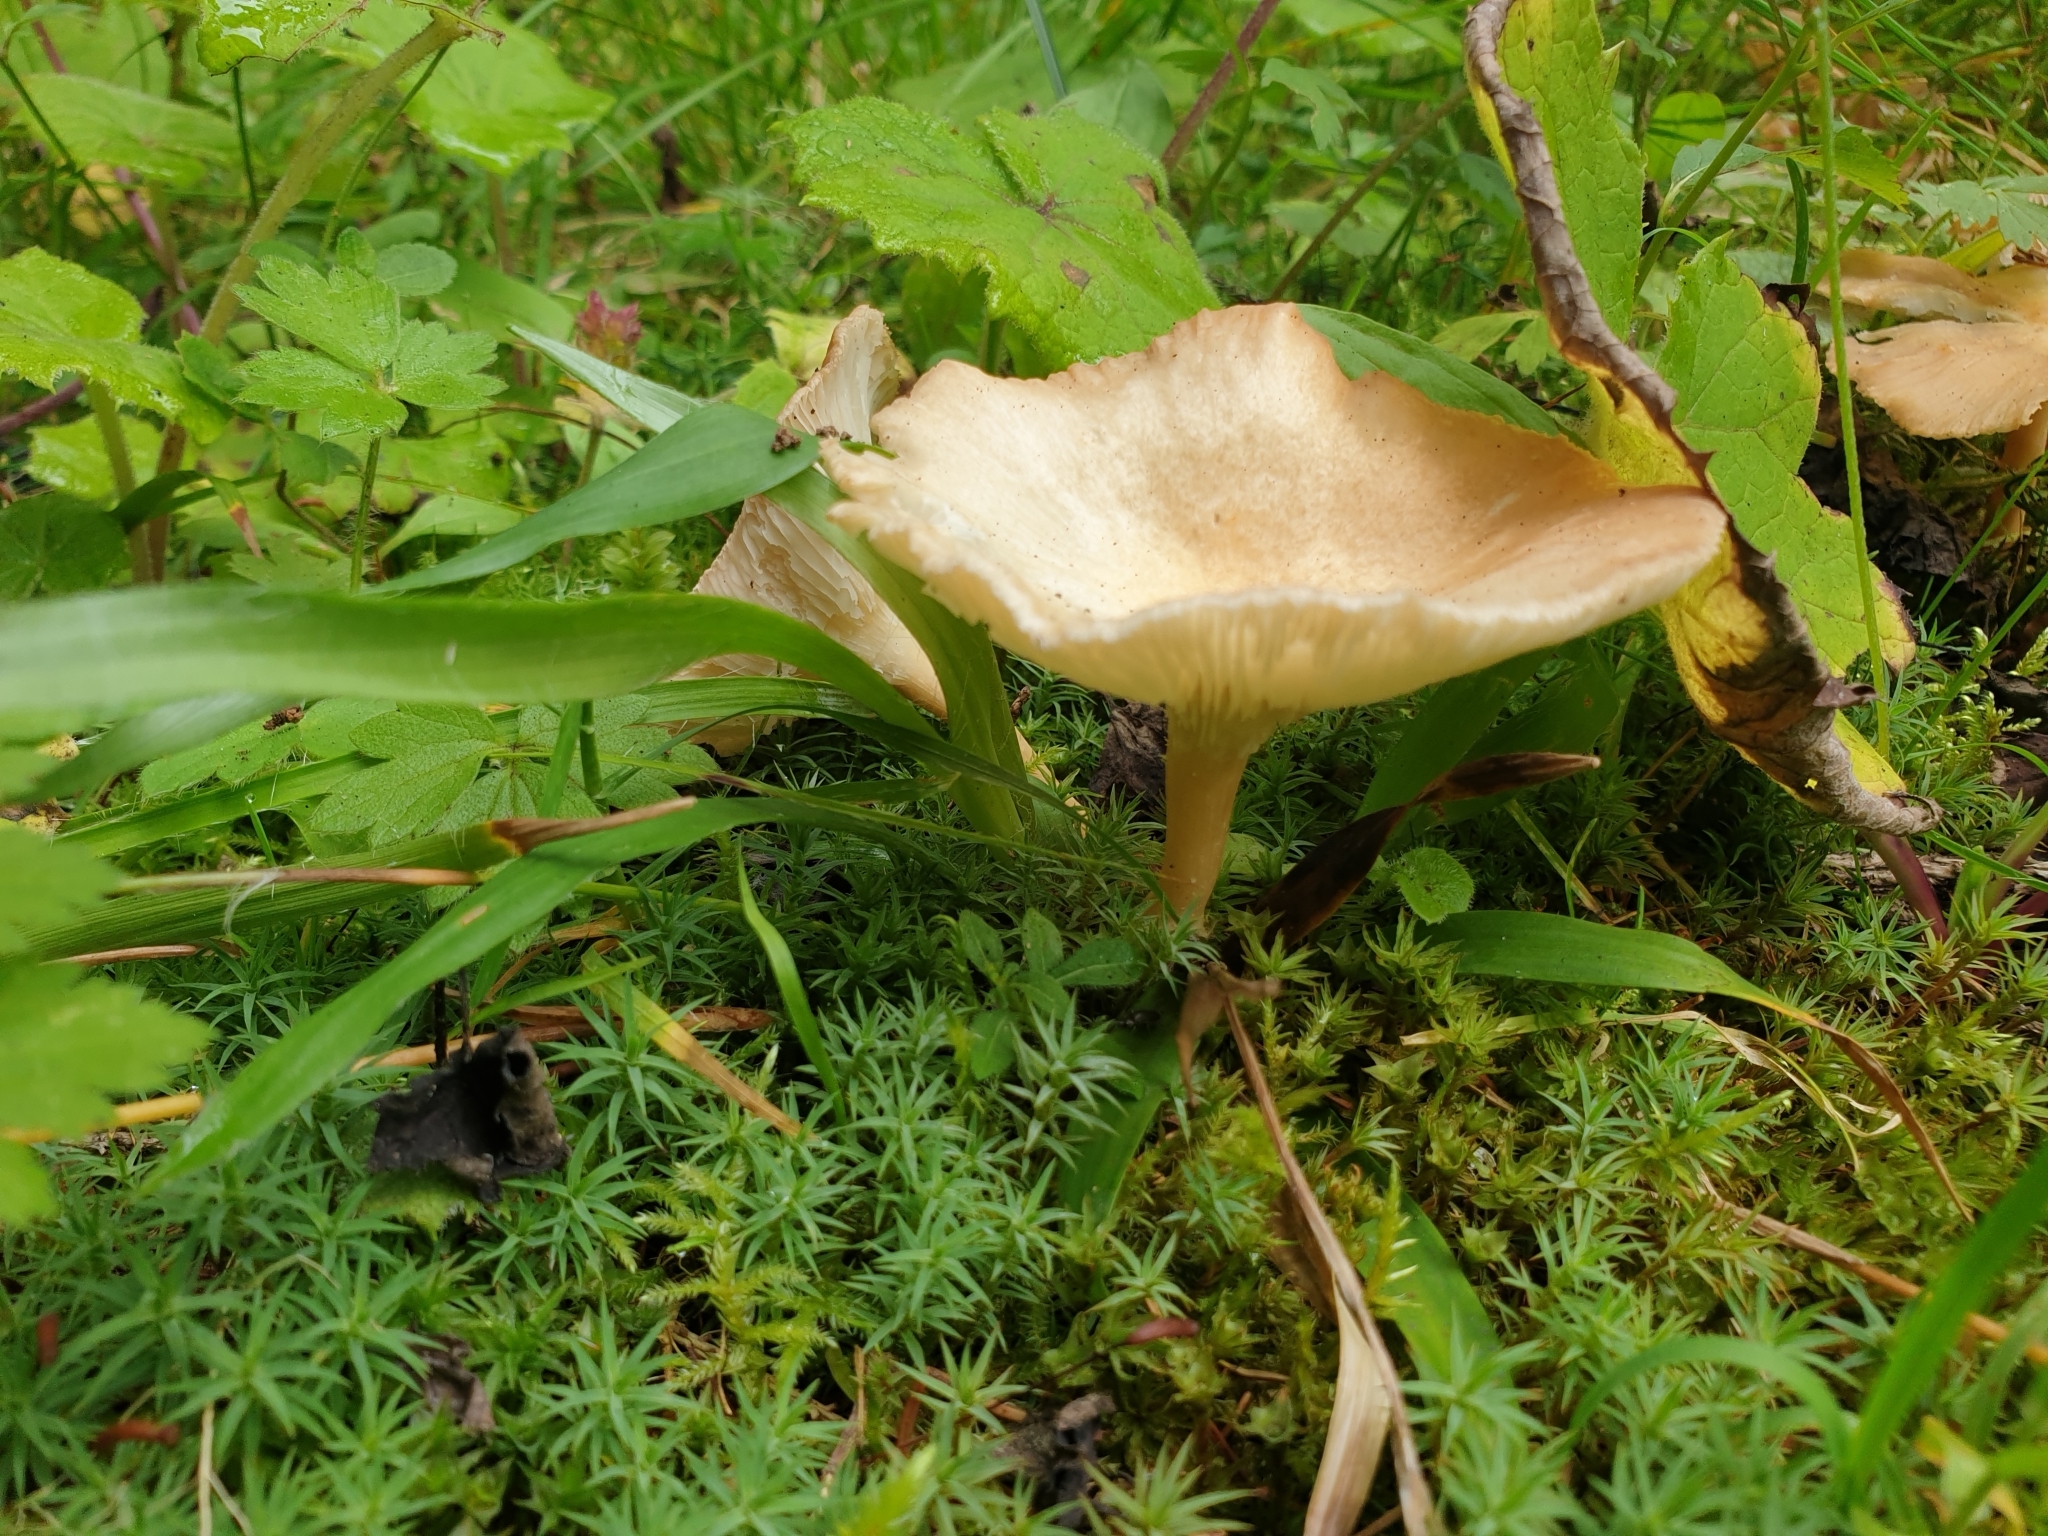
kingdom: Fungi
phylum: Basidiomycota
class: Agaricomycetes
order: Agaricales
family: Tricholomataceae
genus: Infundibulicybe
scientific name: Infundibulicybe gibba
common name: Common funnel
